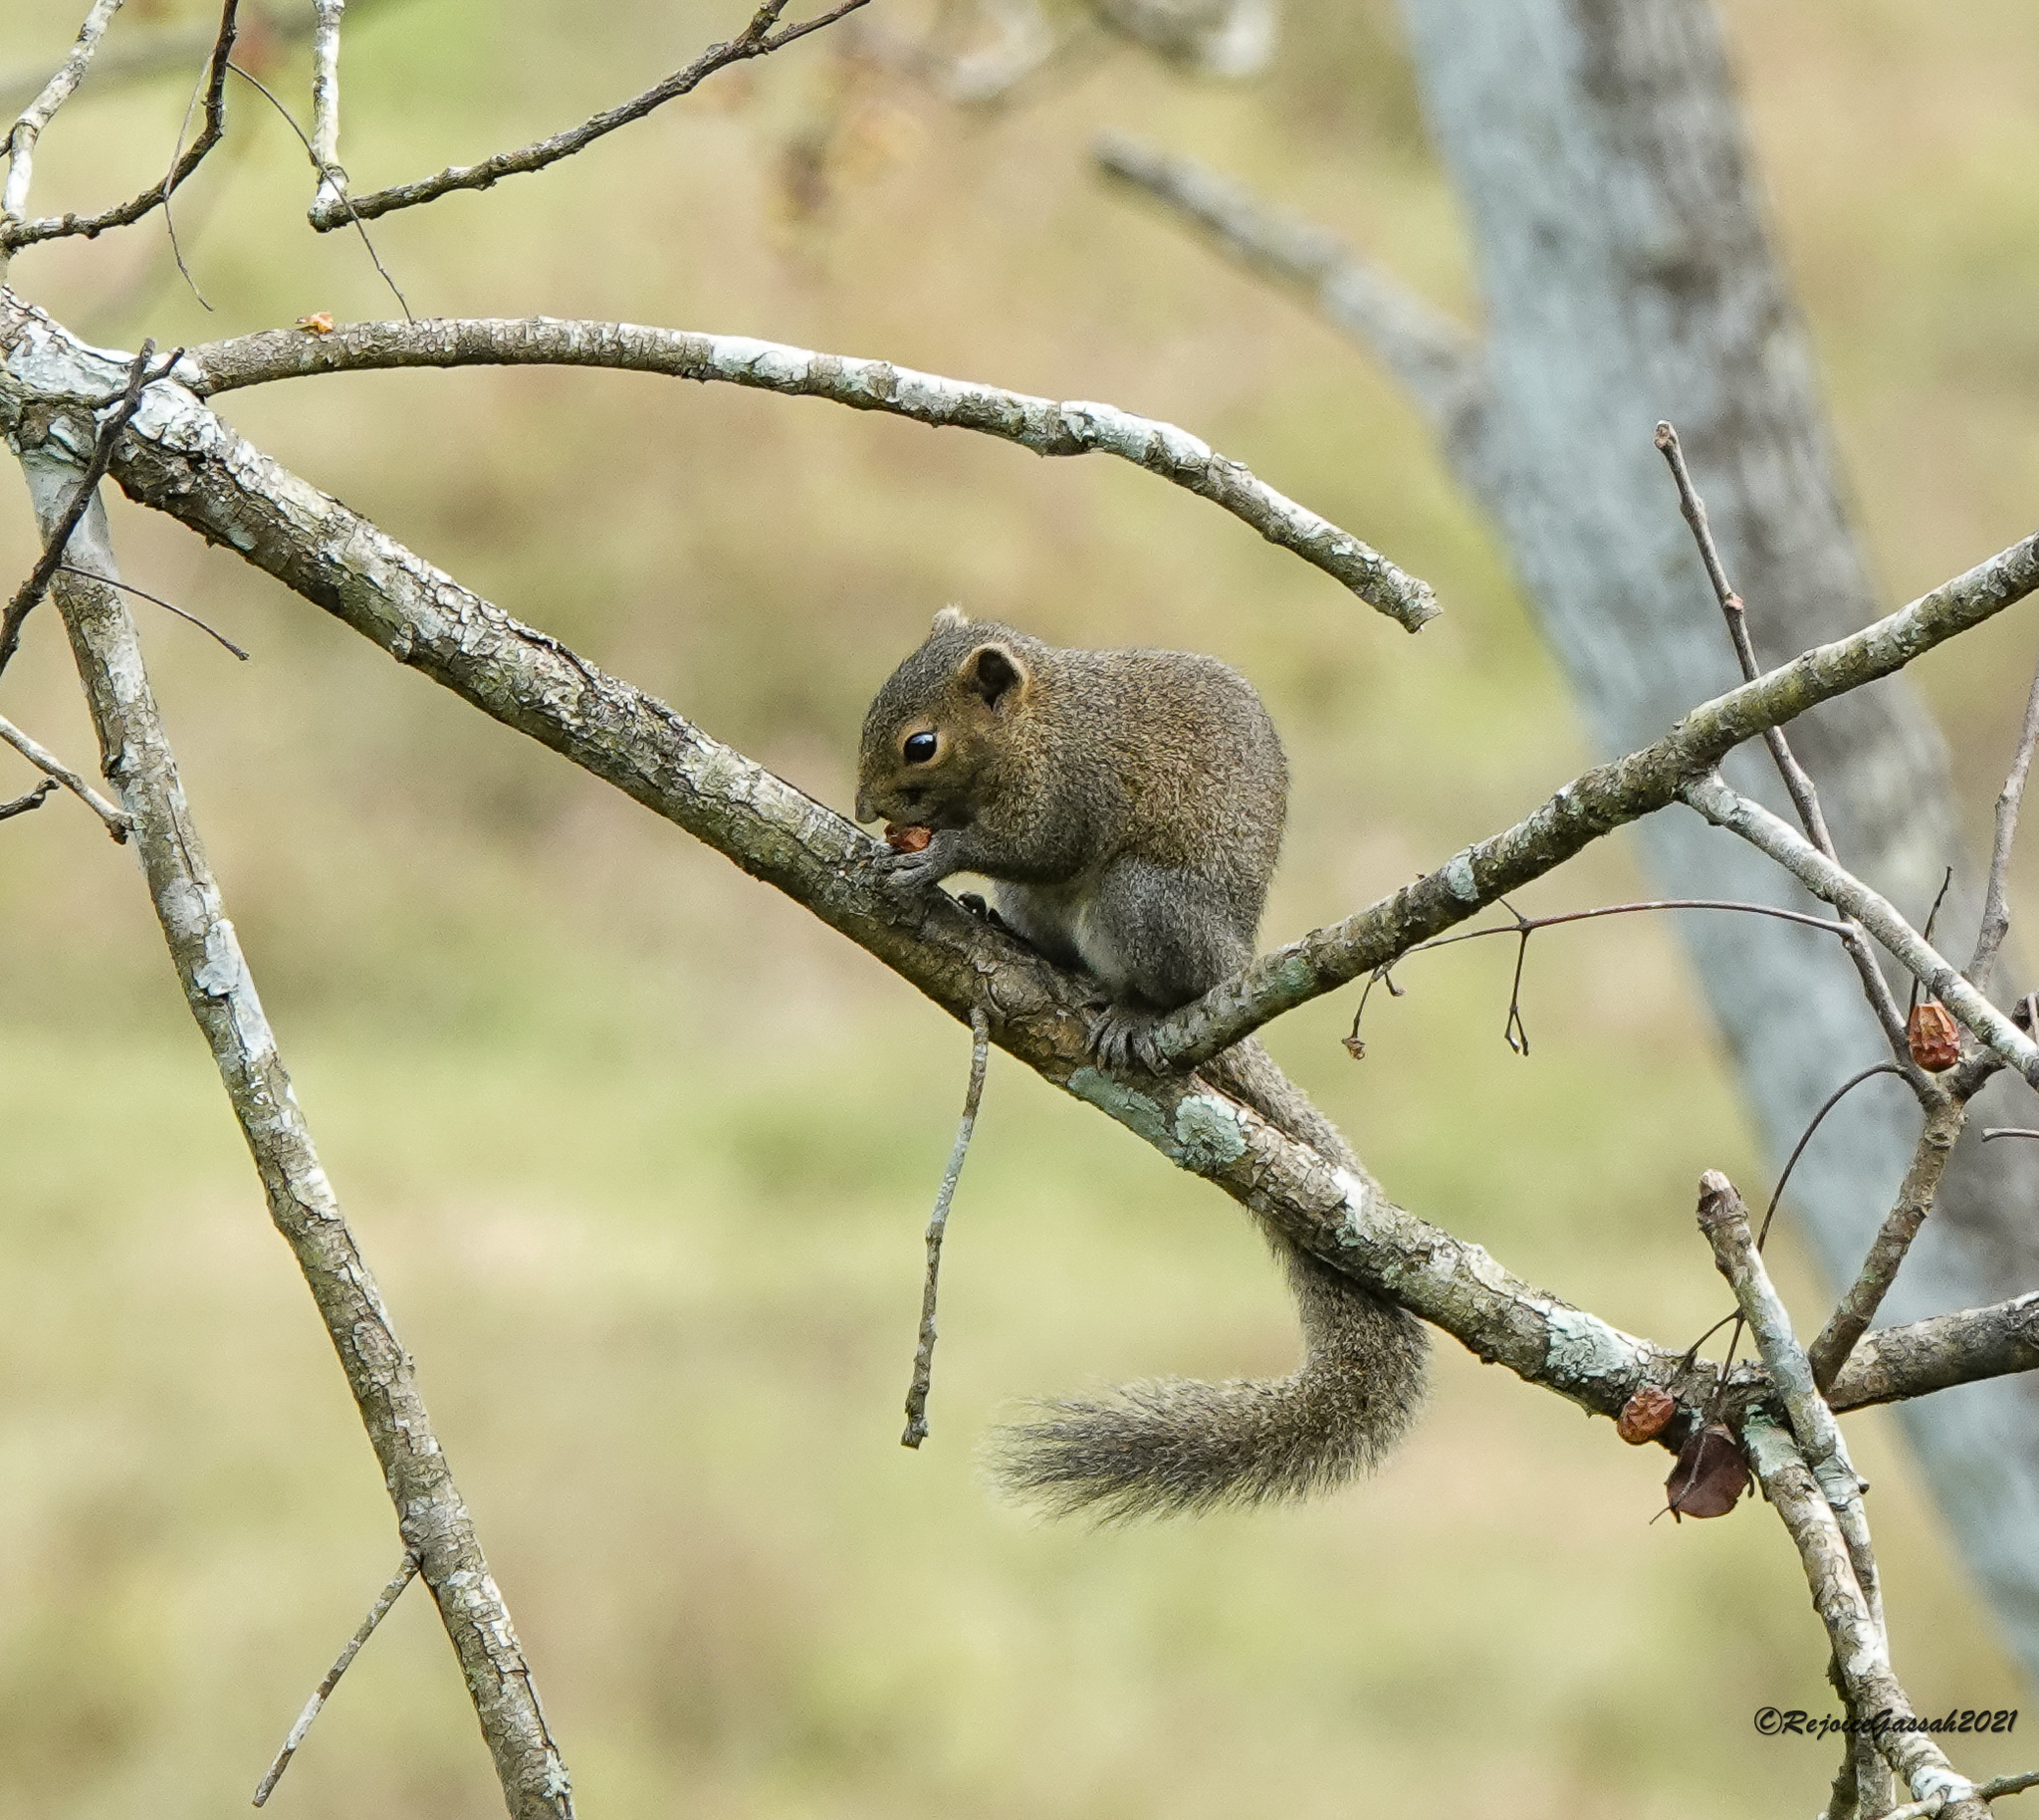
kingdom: Animalia
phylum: Chordata
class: Mammalia
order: Rodentia
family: Sciuridae
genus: Callosciurus
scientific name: Callosciurus pygerythrus
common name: Irrawaddy squirrel
